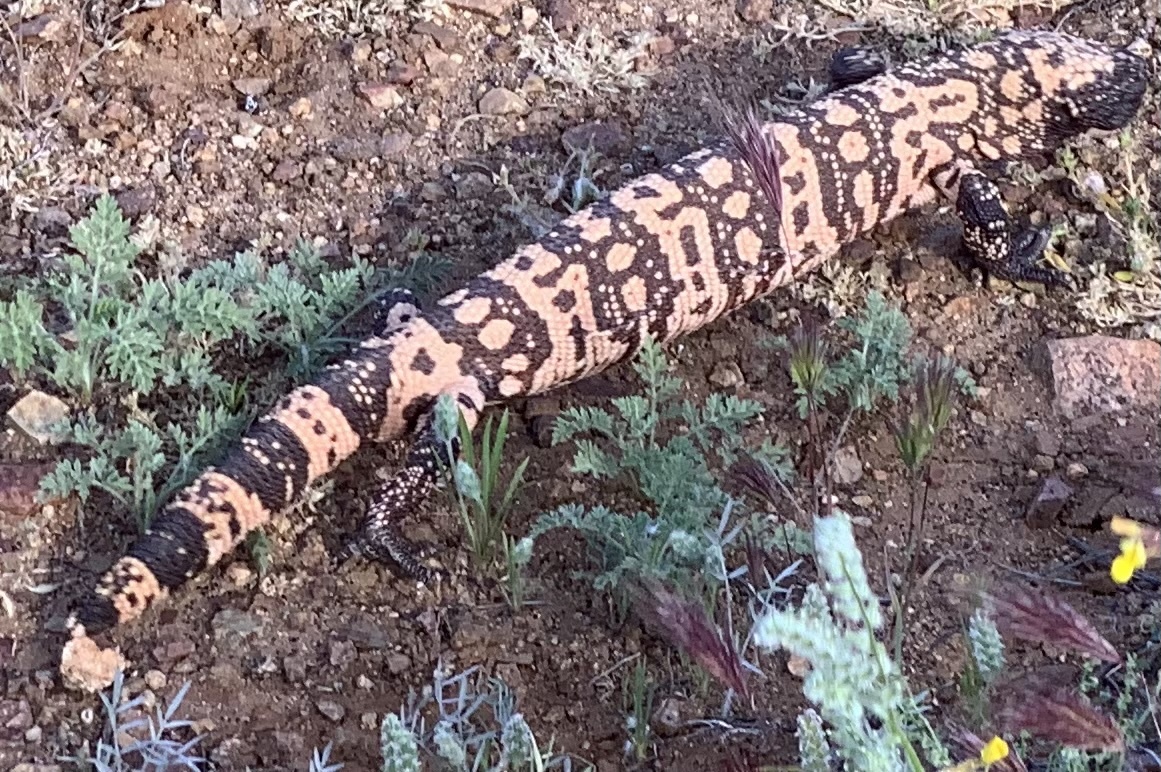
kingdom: Animalia
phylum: Chordata
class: Squamata
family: Helodermatidae
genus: Heloderma
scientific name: Heloderma suspectum
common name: Gila monster
